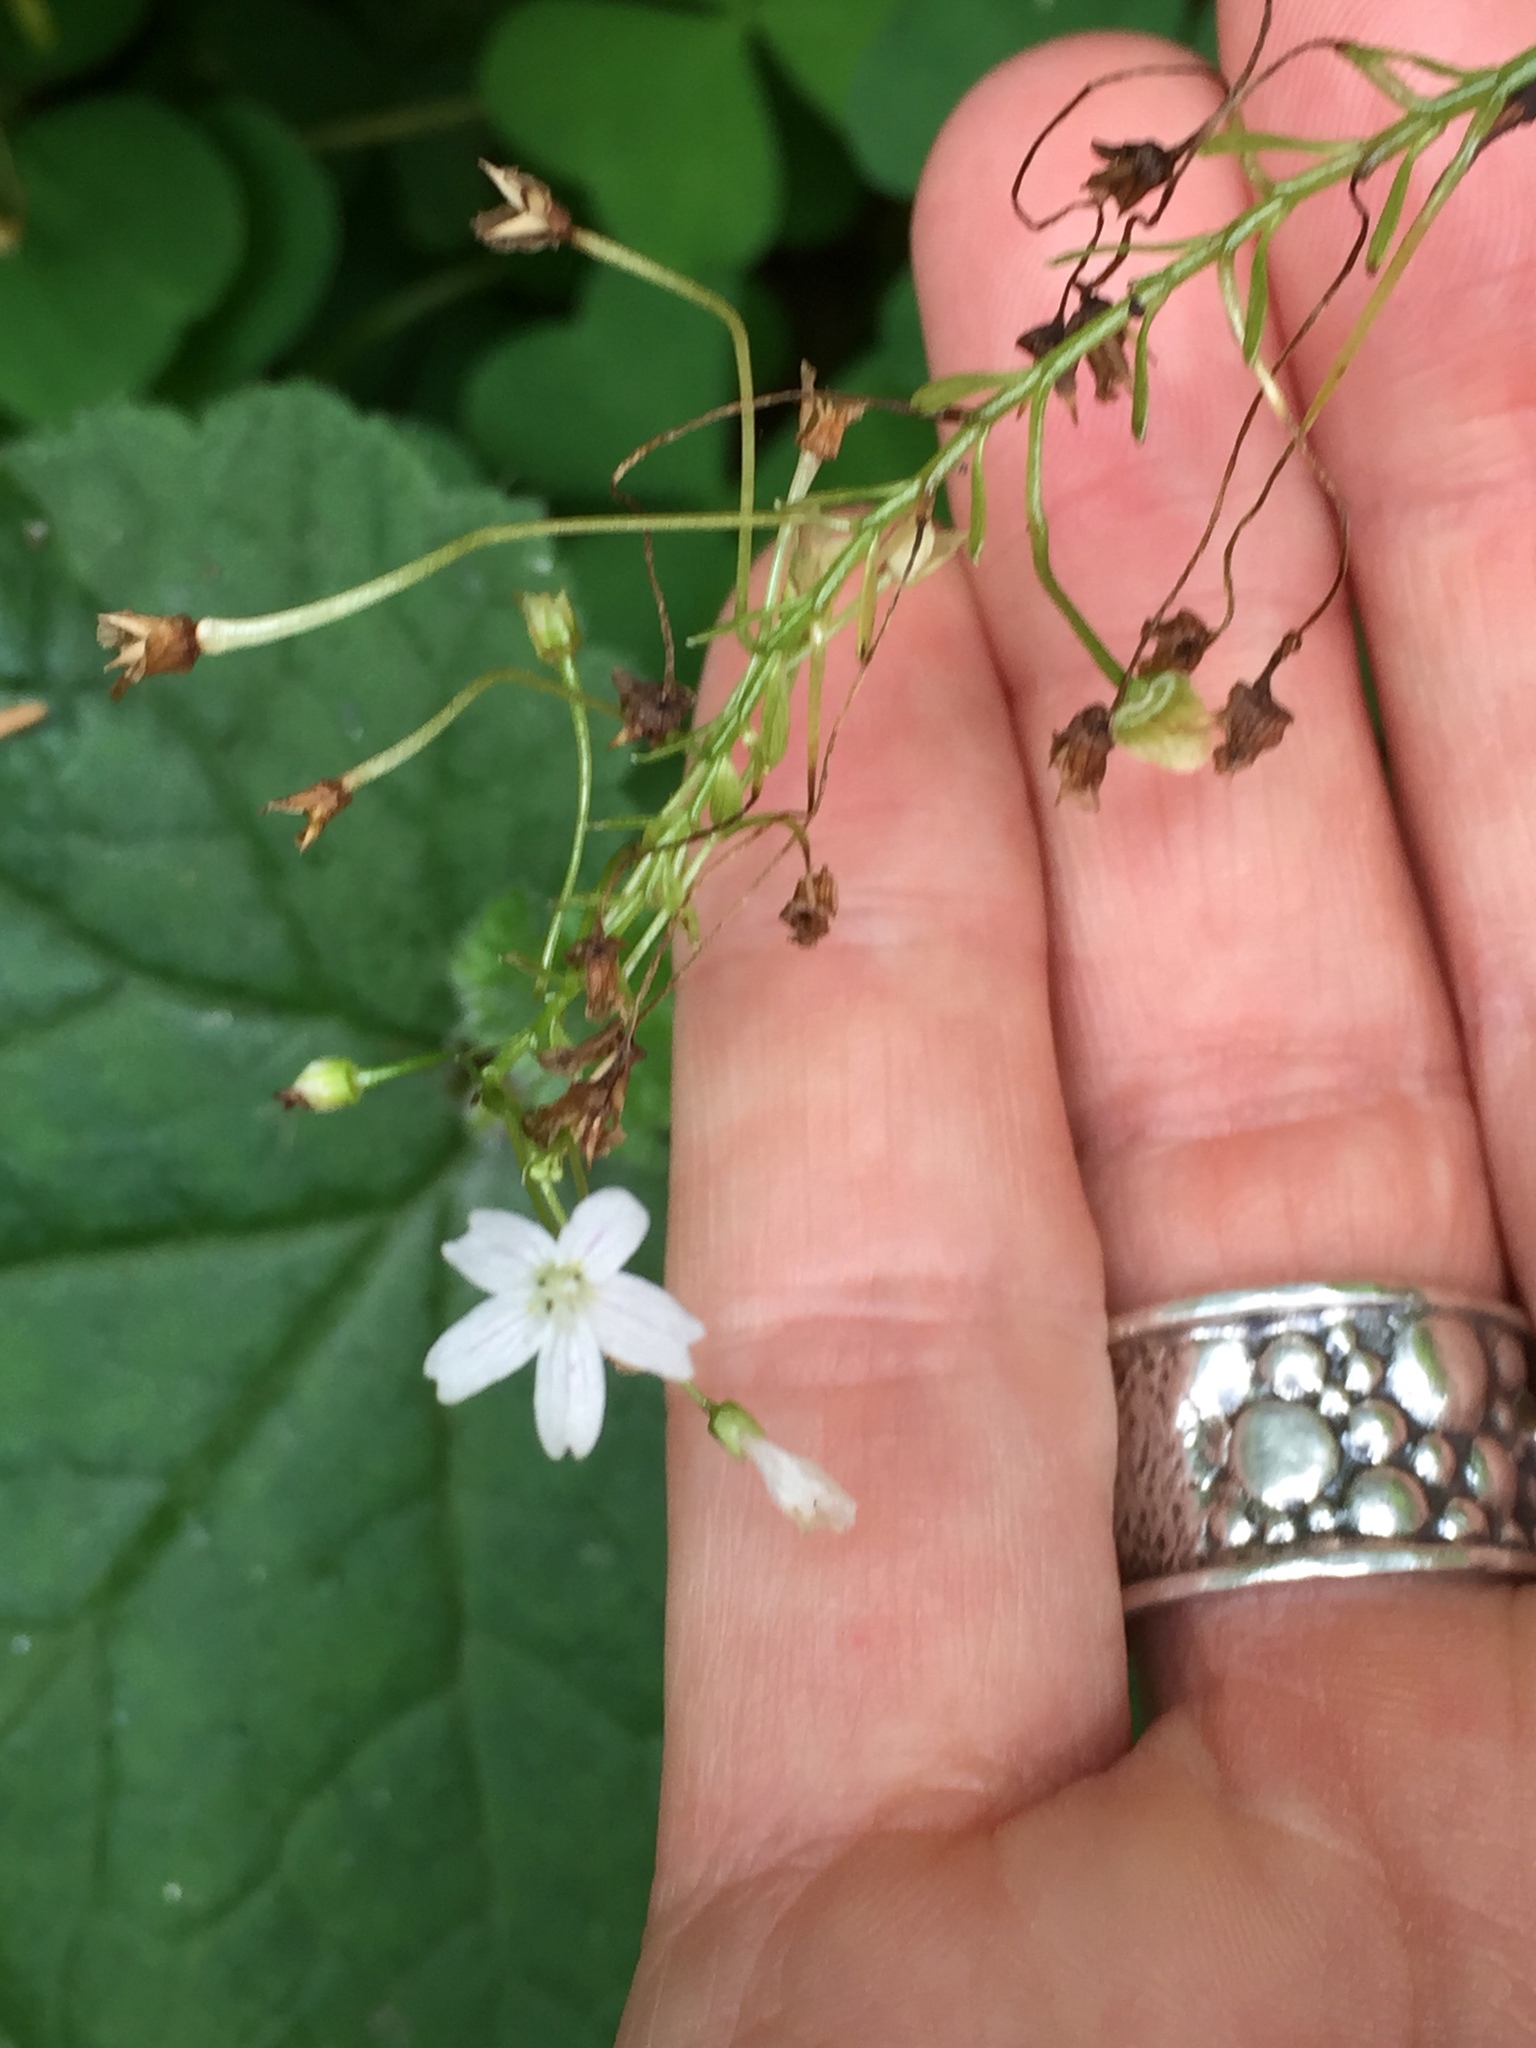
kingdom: Plantae
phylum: Tracheophyta
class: Magnoliopsida
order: Caryophyllales
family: Montiaceae
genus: Claytonia
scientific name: Claytonia sibirica
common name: Pink purslane
